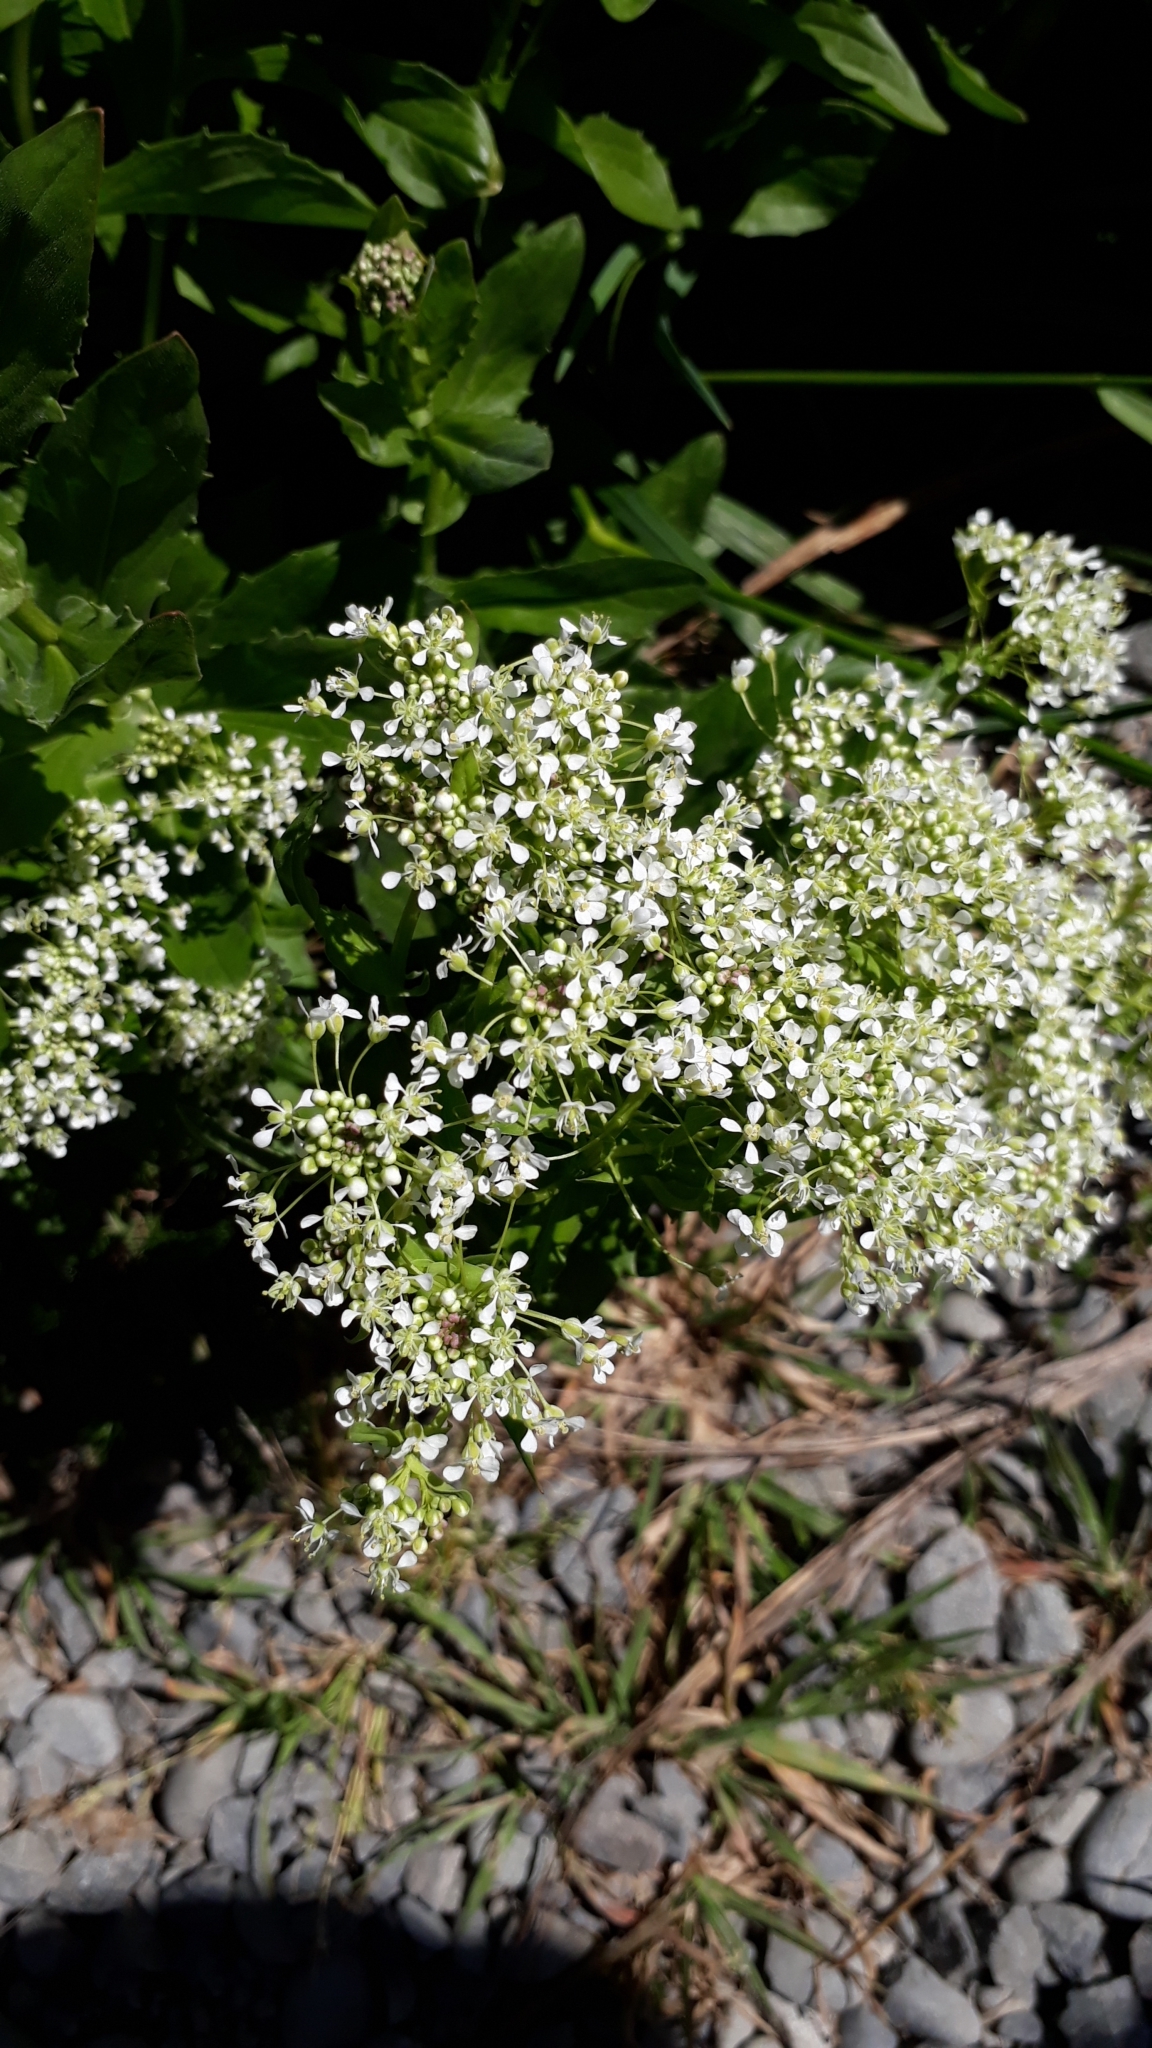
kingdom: Plantae
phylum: Tracheophyta
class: Magnoliopsida
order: Brassicales
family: Brassicaceae
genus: Lepidium
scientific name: Lepidium draba
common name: Hoary cress
